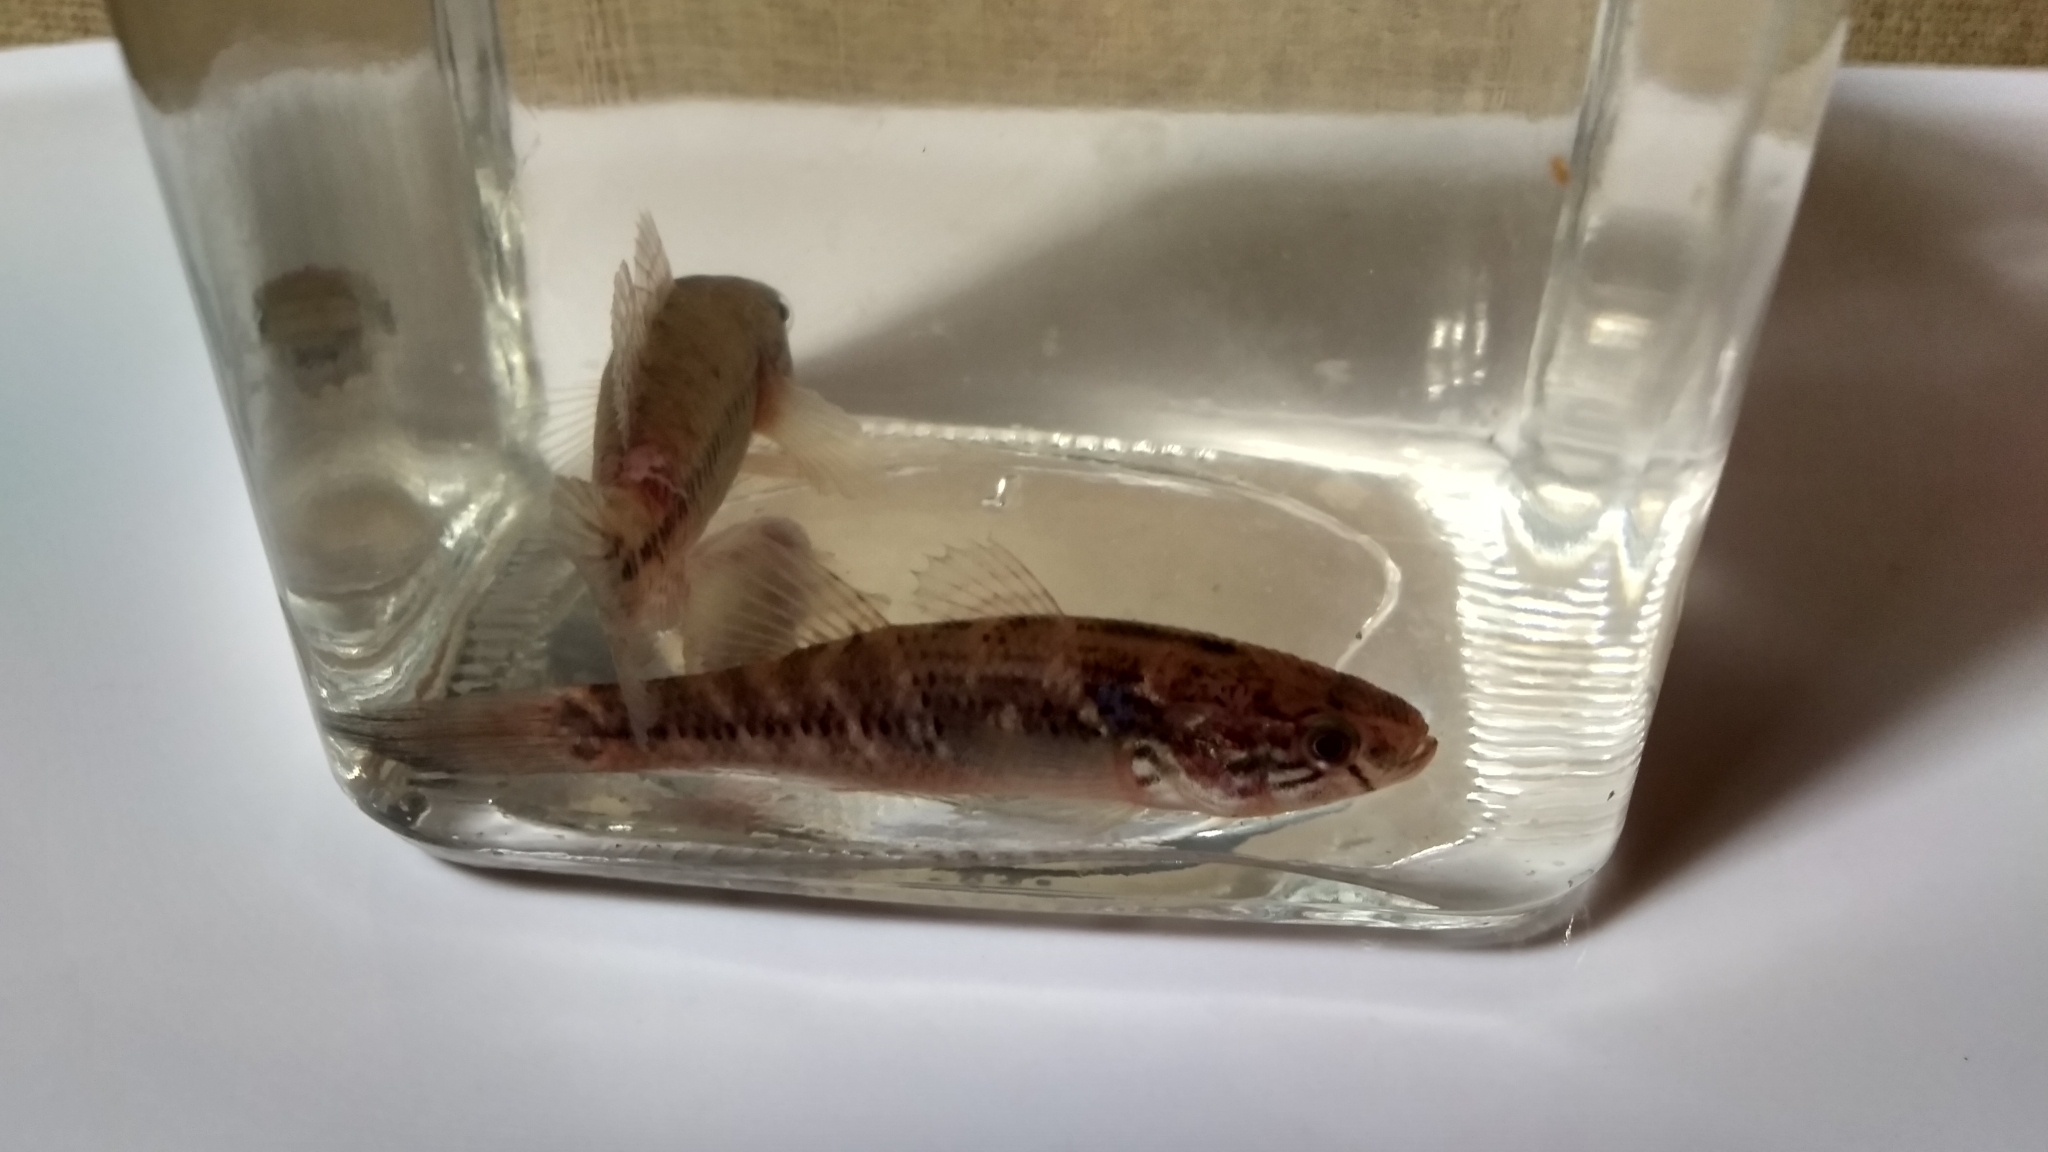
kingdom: Animalia
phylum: Chordata
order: Perciformes
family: Eleotridae
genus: Dormitator
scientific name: Dormitator maculatus
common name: Fat sleeper
